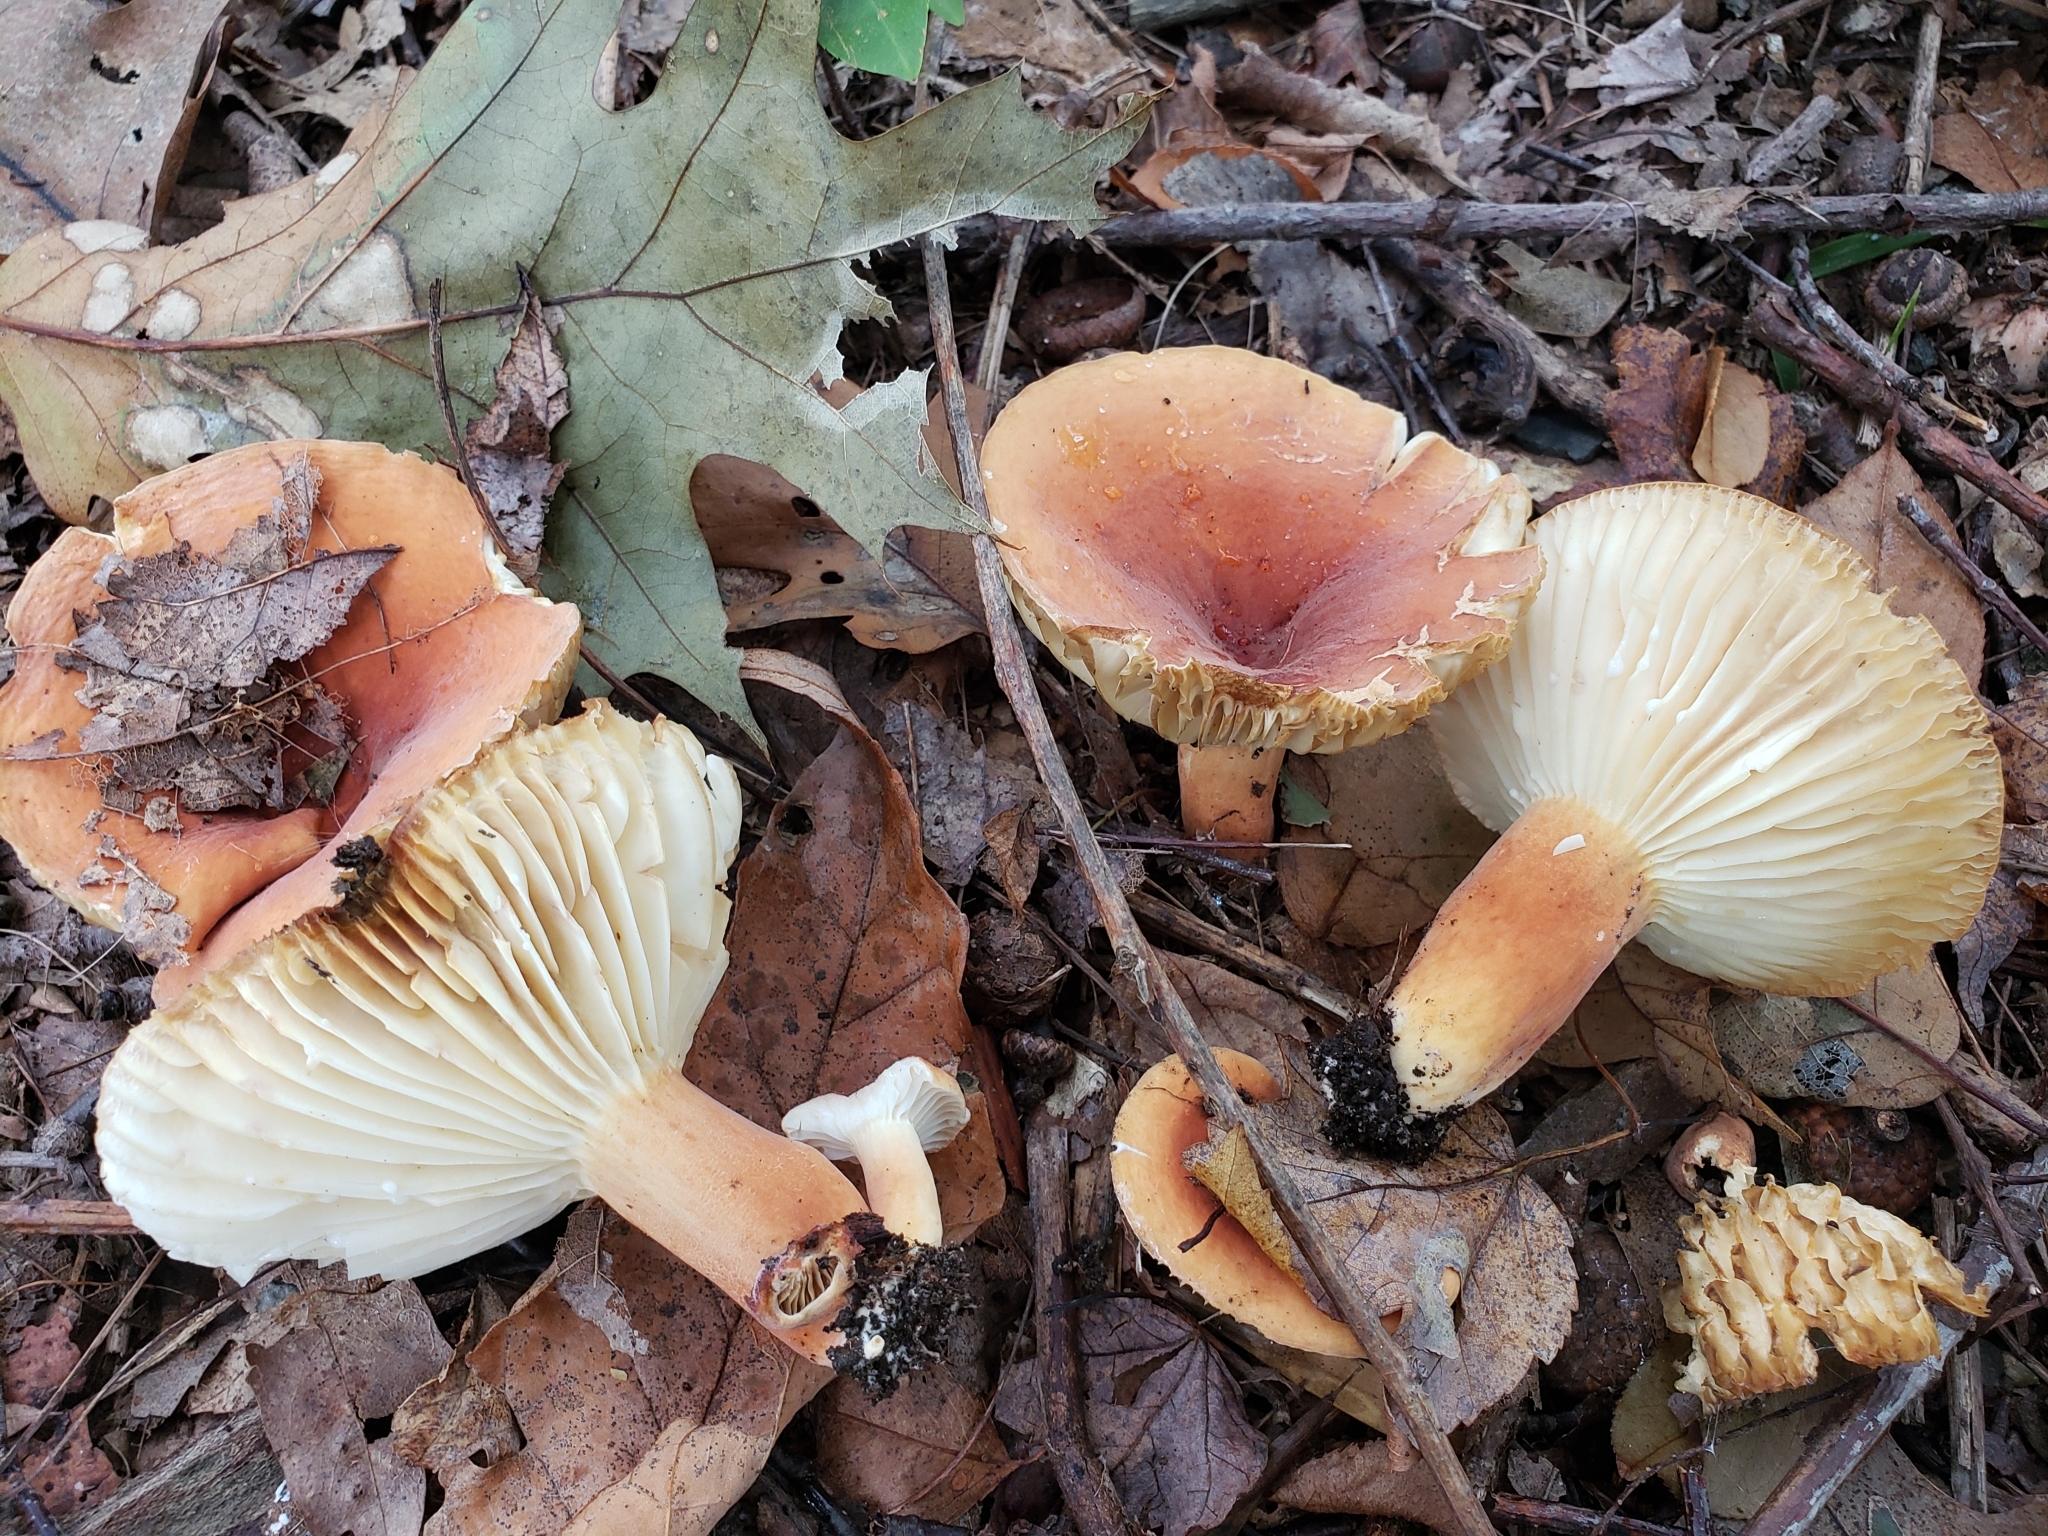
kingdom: Fungi
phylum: Basidiomycota
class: Agaricomycetes
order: Russulales
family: Russulaceae
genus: Lactarius
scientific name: Lactarius hygrophoroides
